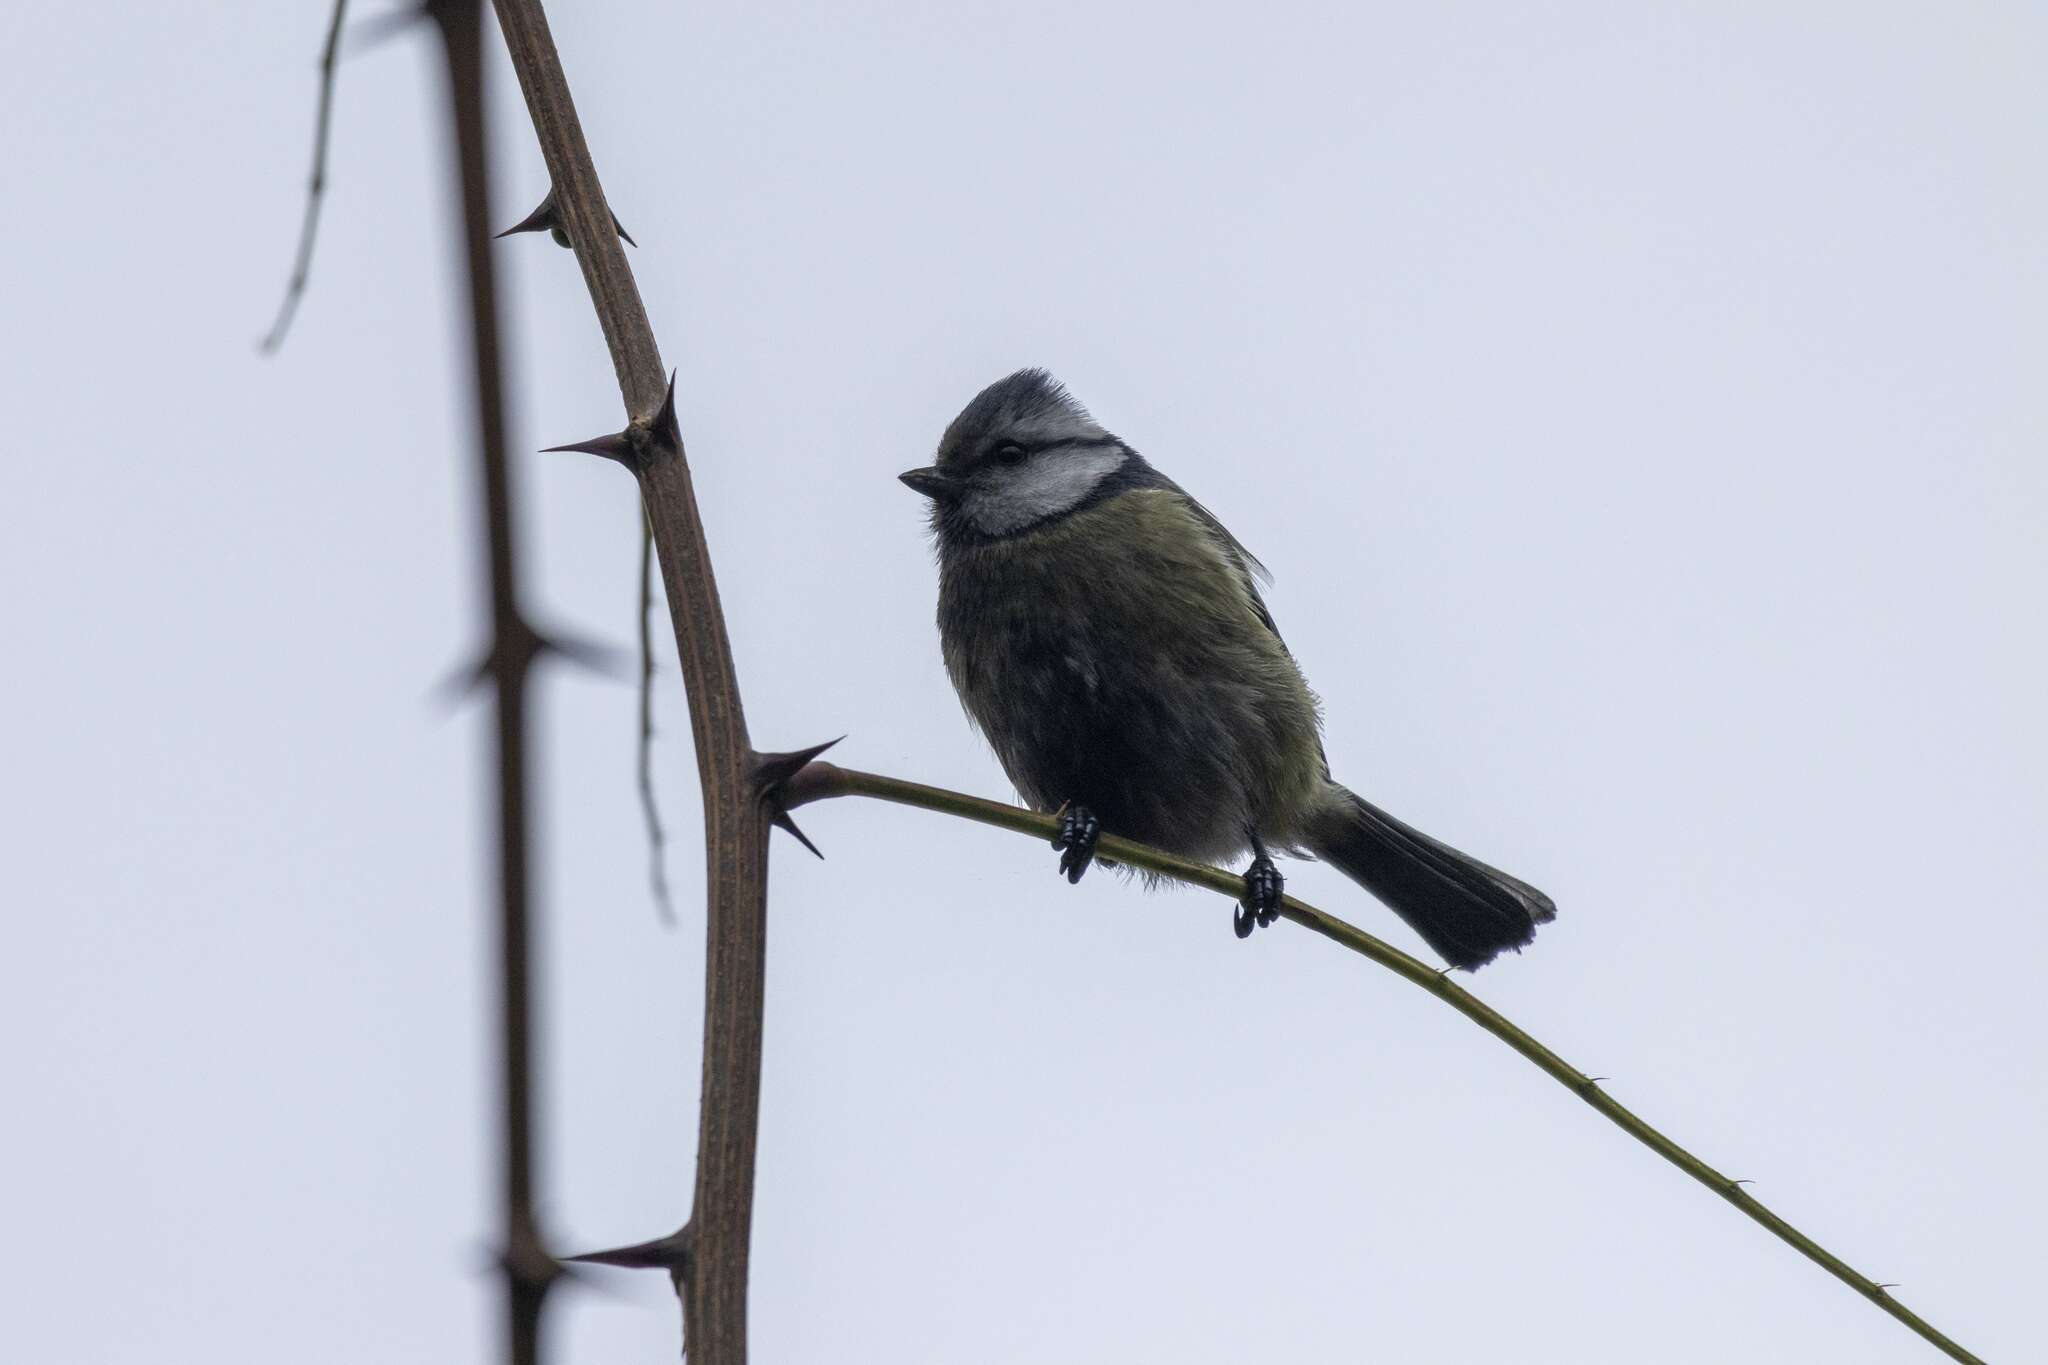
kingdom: Animalia
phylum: Chordata
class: Aves
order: Passeriformes
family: Paridae
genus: Cyanistes
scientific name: Cyanistes caeruleus
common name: Eurasian blue tit
